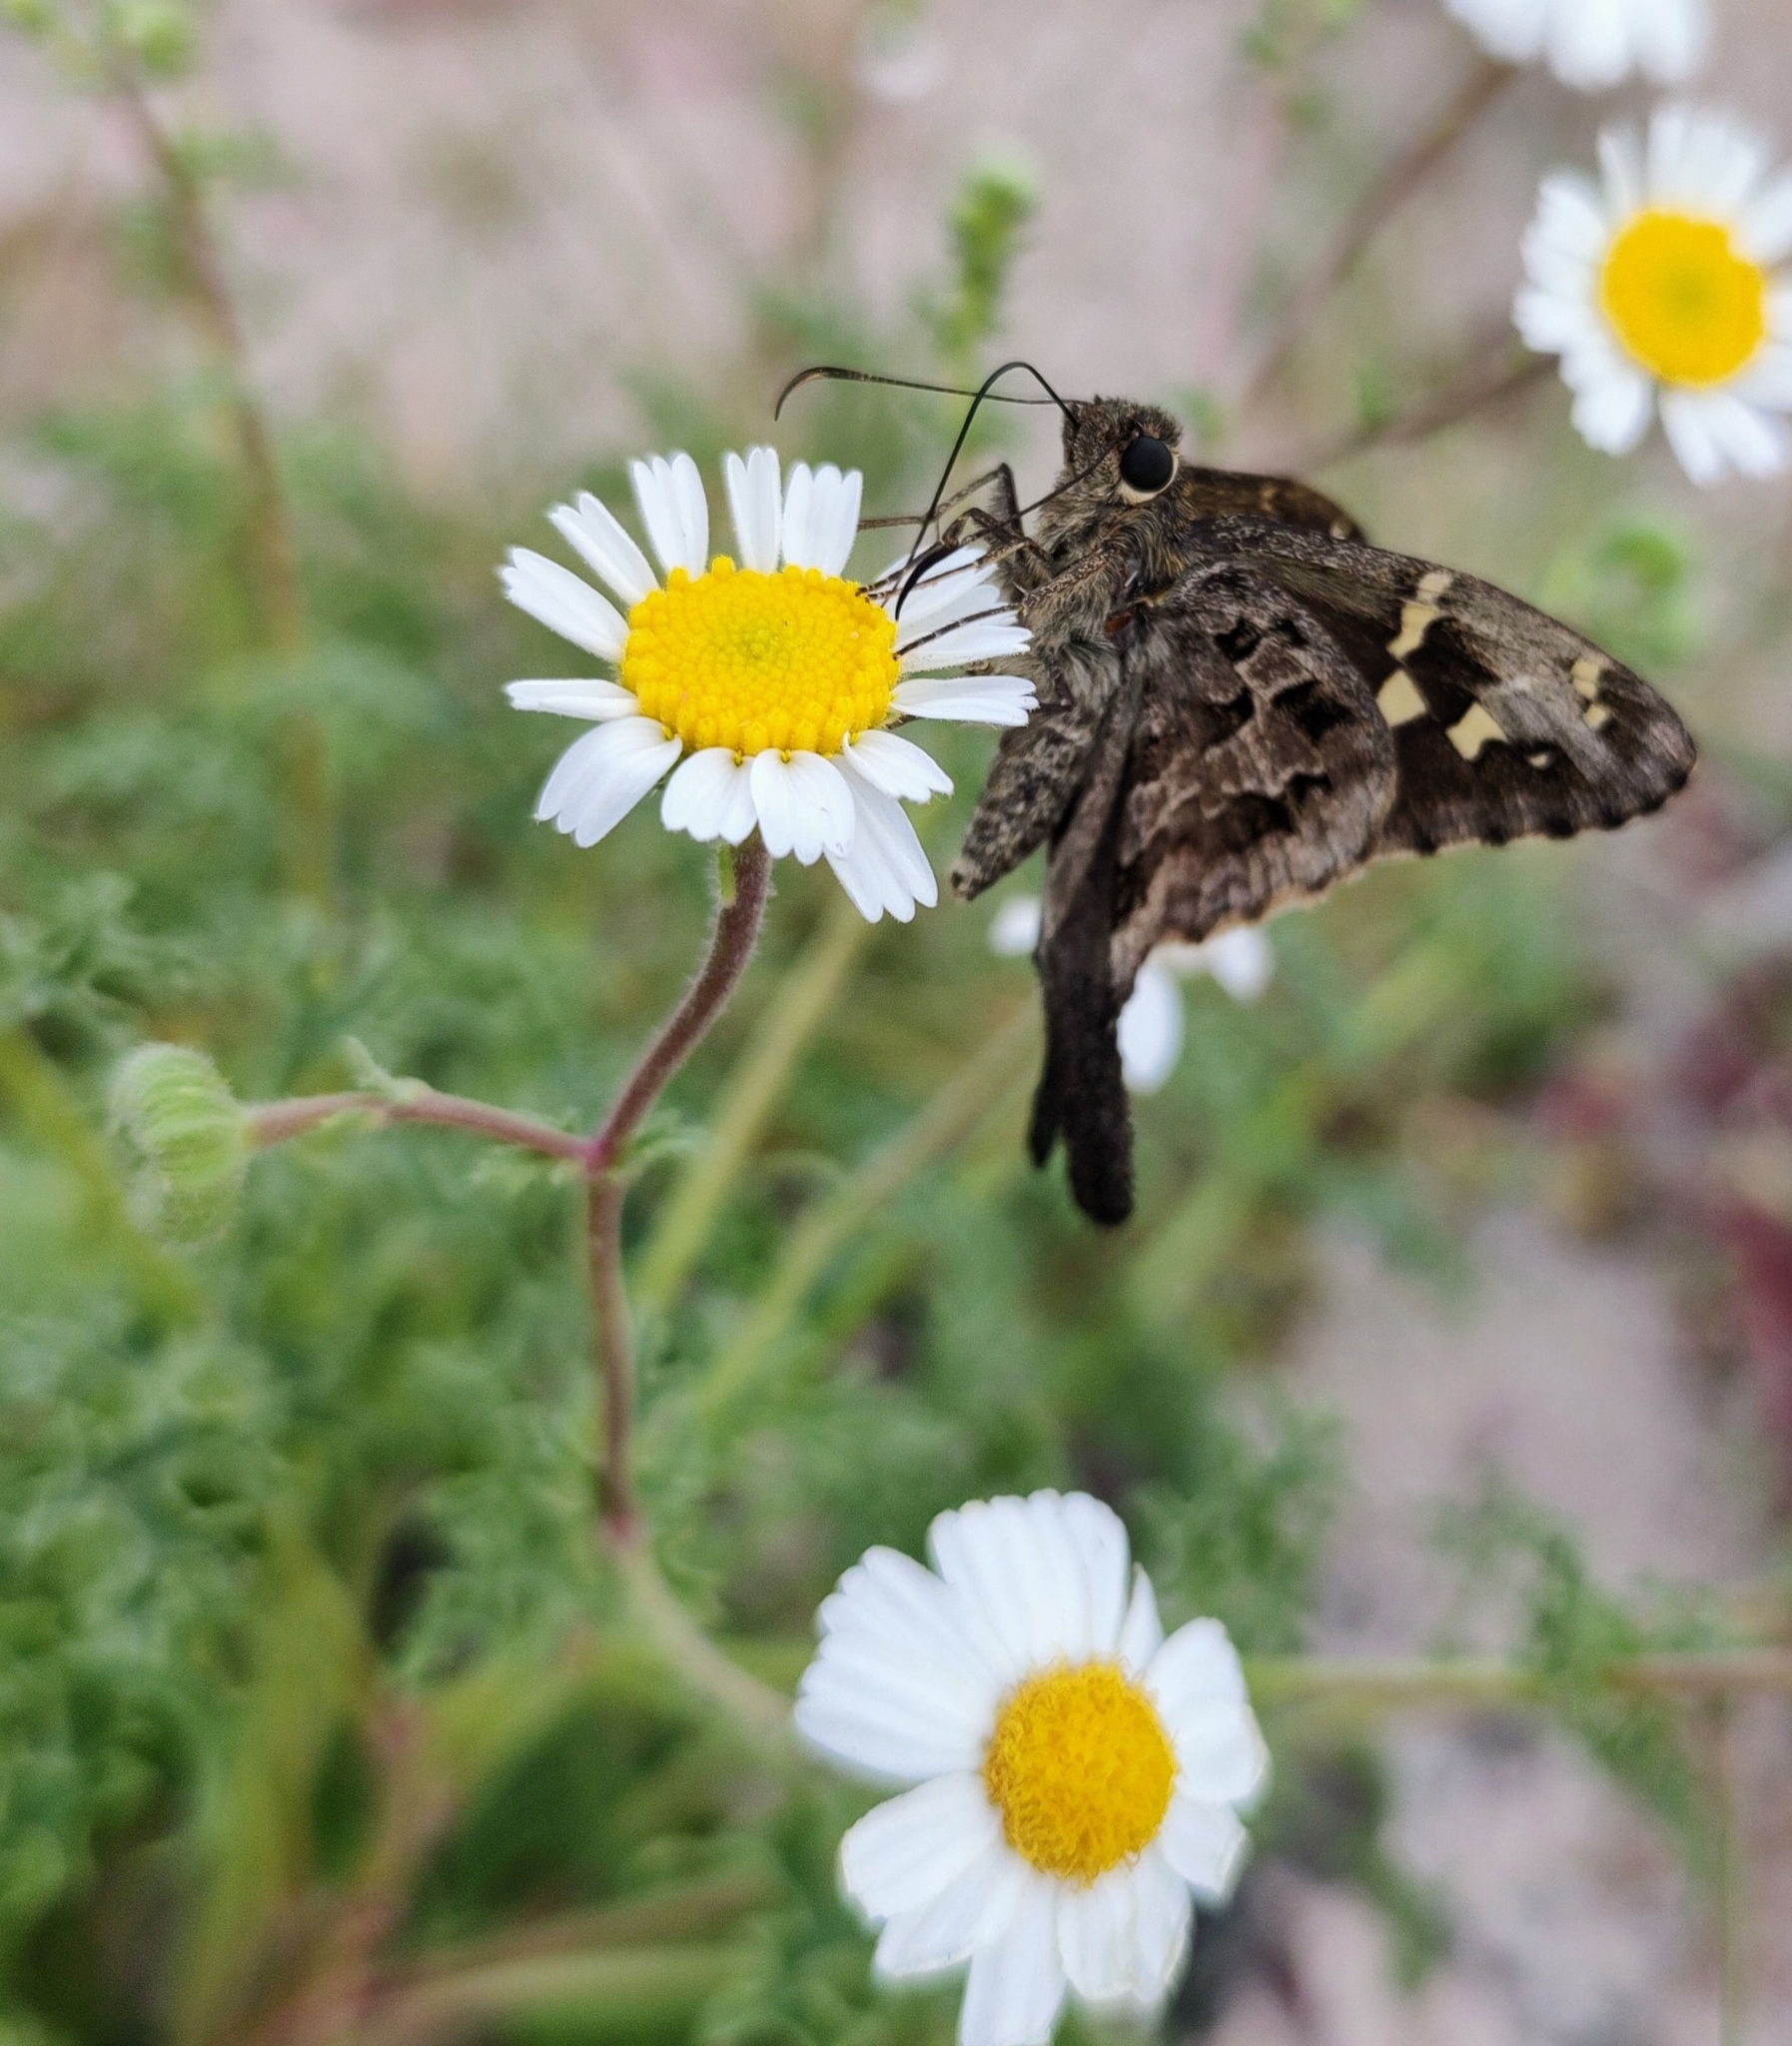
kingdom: Animalia
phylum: Arthropoda
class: Insecta
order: Lepidoptera
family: Hesperiidae
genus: Thorybes
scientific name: Thorybes
